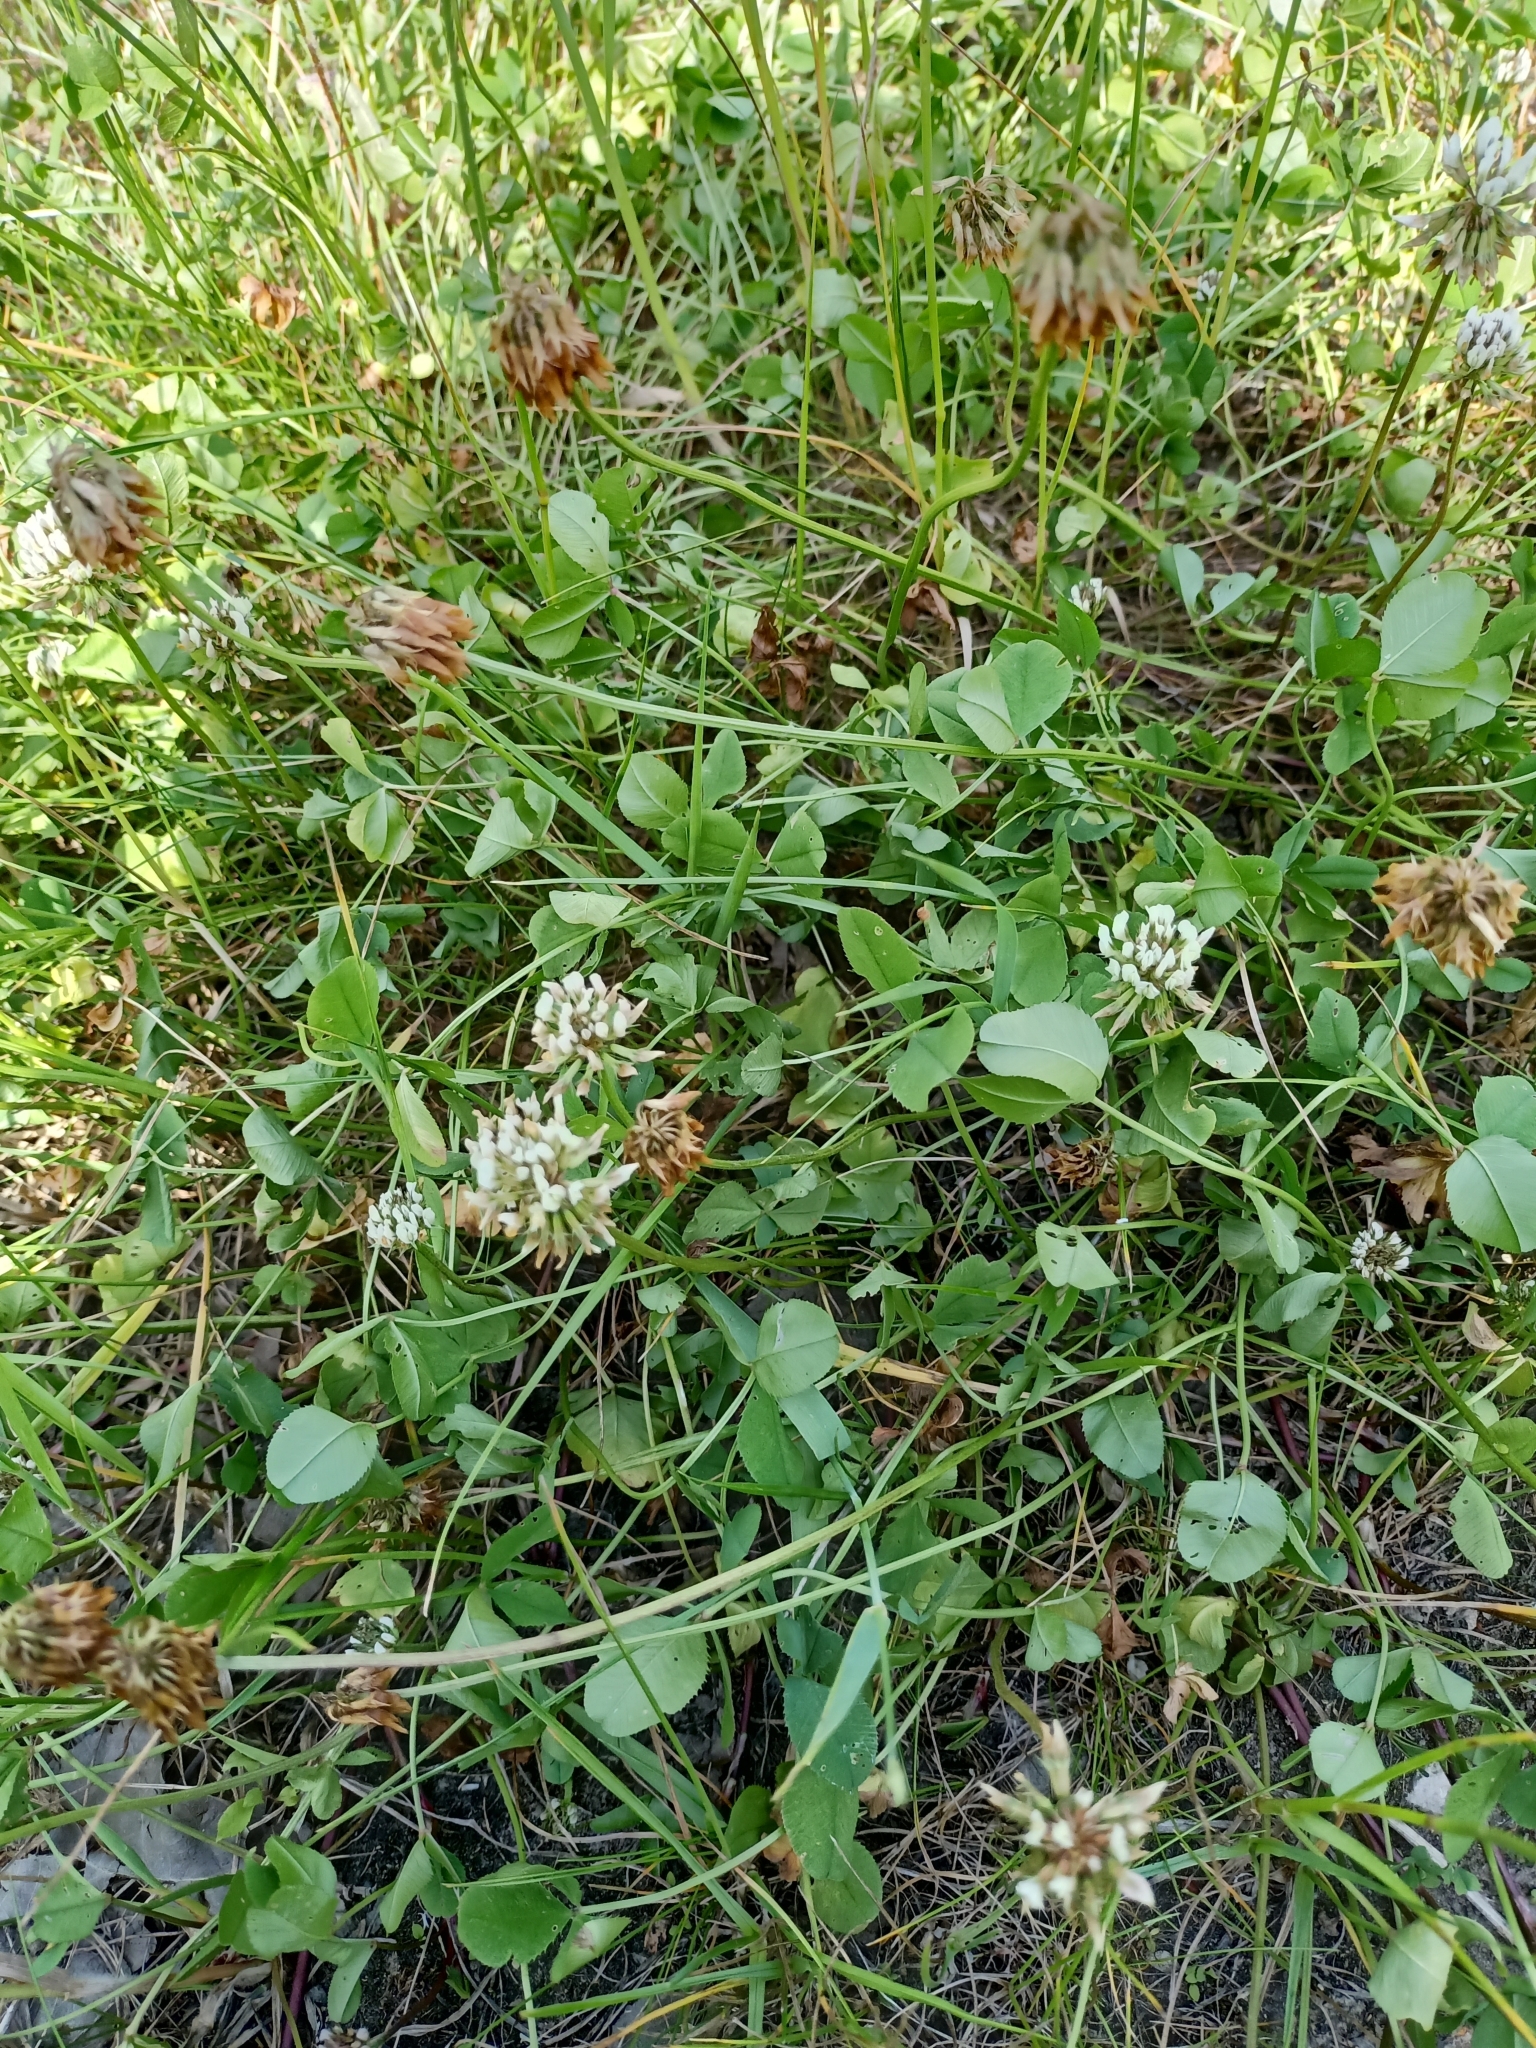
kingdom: Plantae
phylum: Tracheophyta
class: Magnoliopsida
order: Fabales
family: Fabaceae
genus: Trifolium
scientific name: Trifolium repens
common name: White clover
